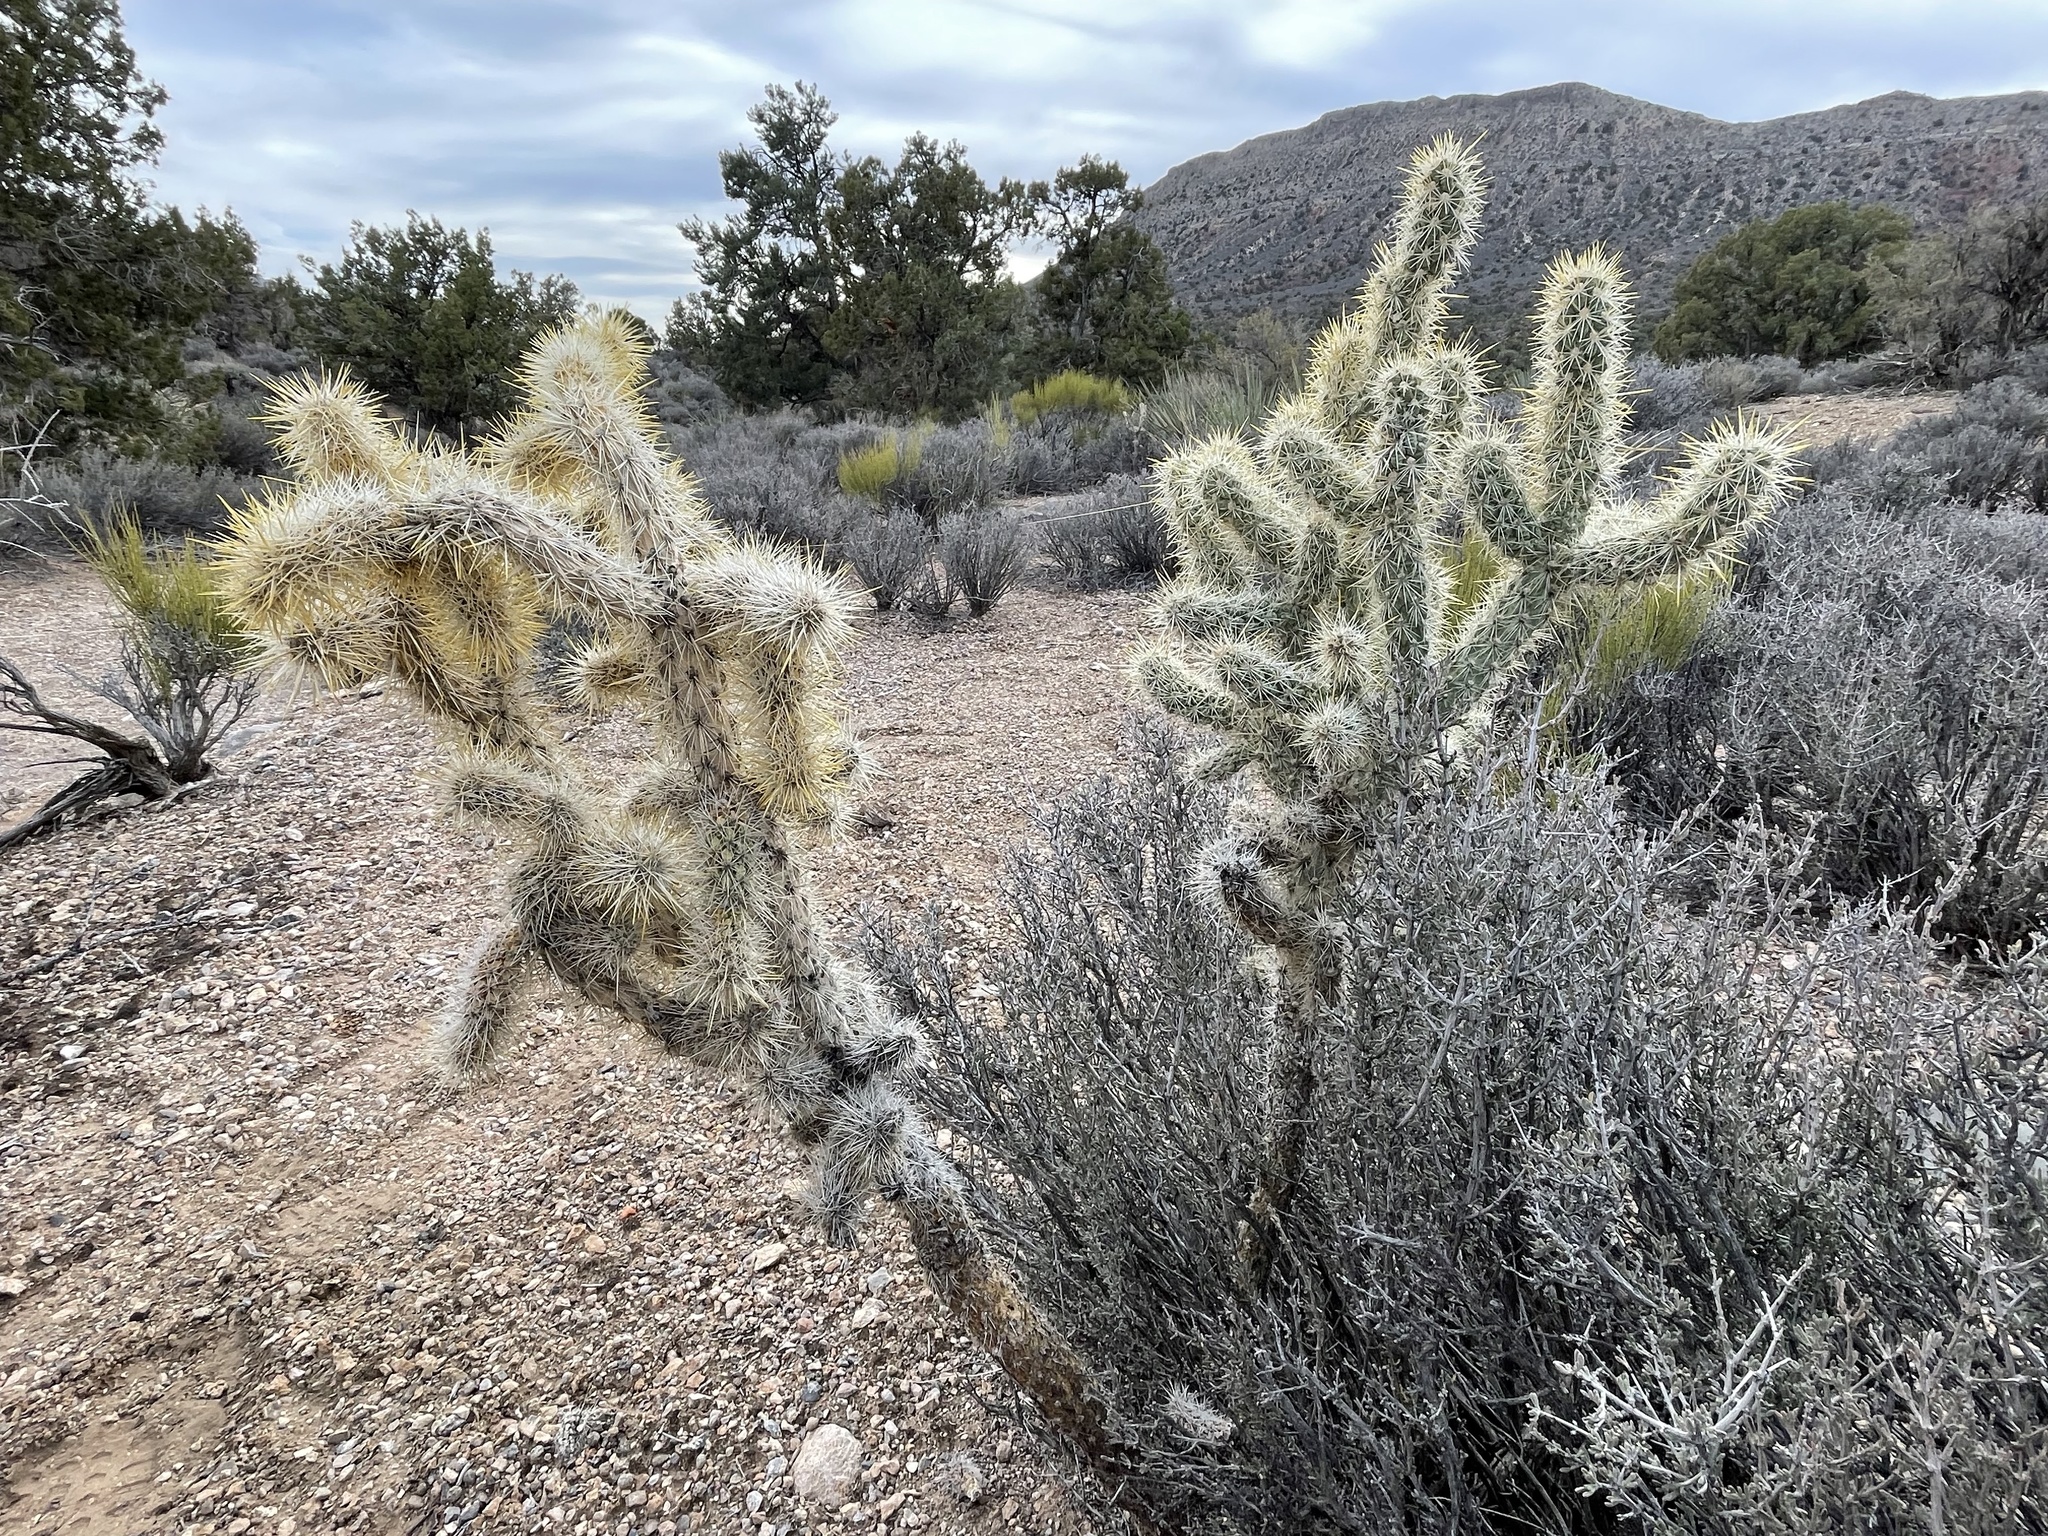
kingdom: Plantae
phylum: Tracheophyta
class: Magnoliopsida
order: Caryophyllales
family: Cactaceae
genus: Cylindropuntia
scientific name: Cylindropuntia acanthocarpa
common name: Buckhorn cholla
